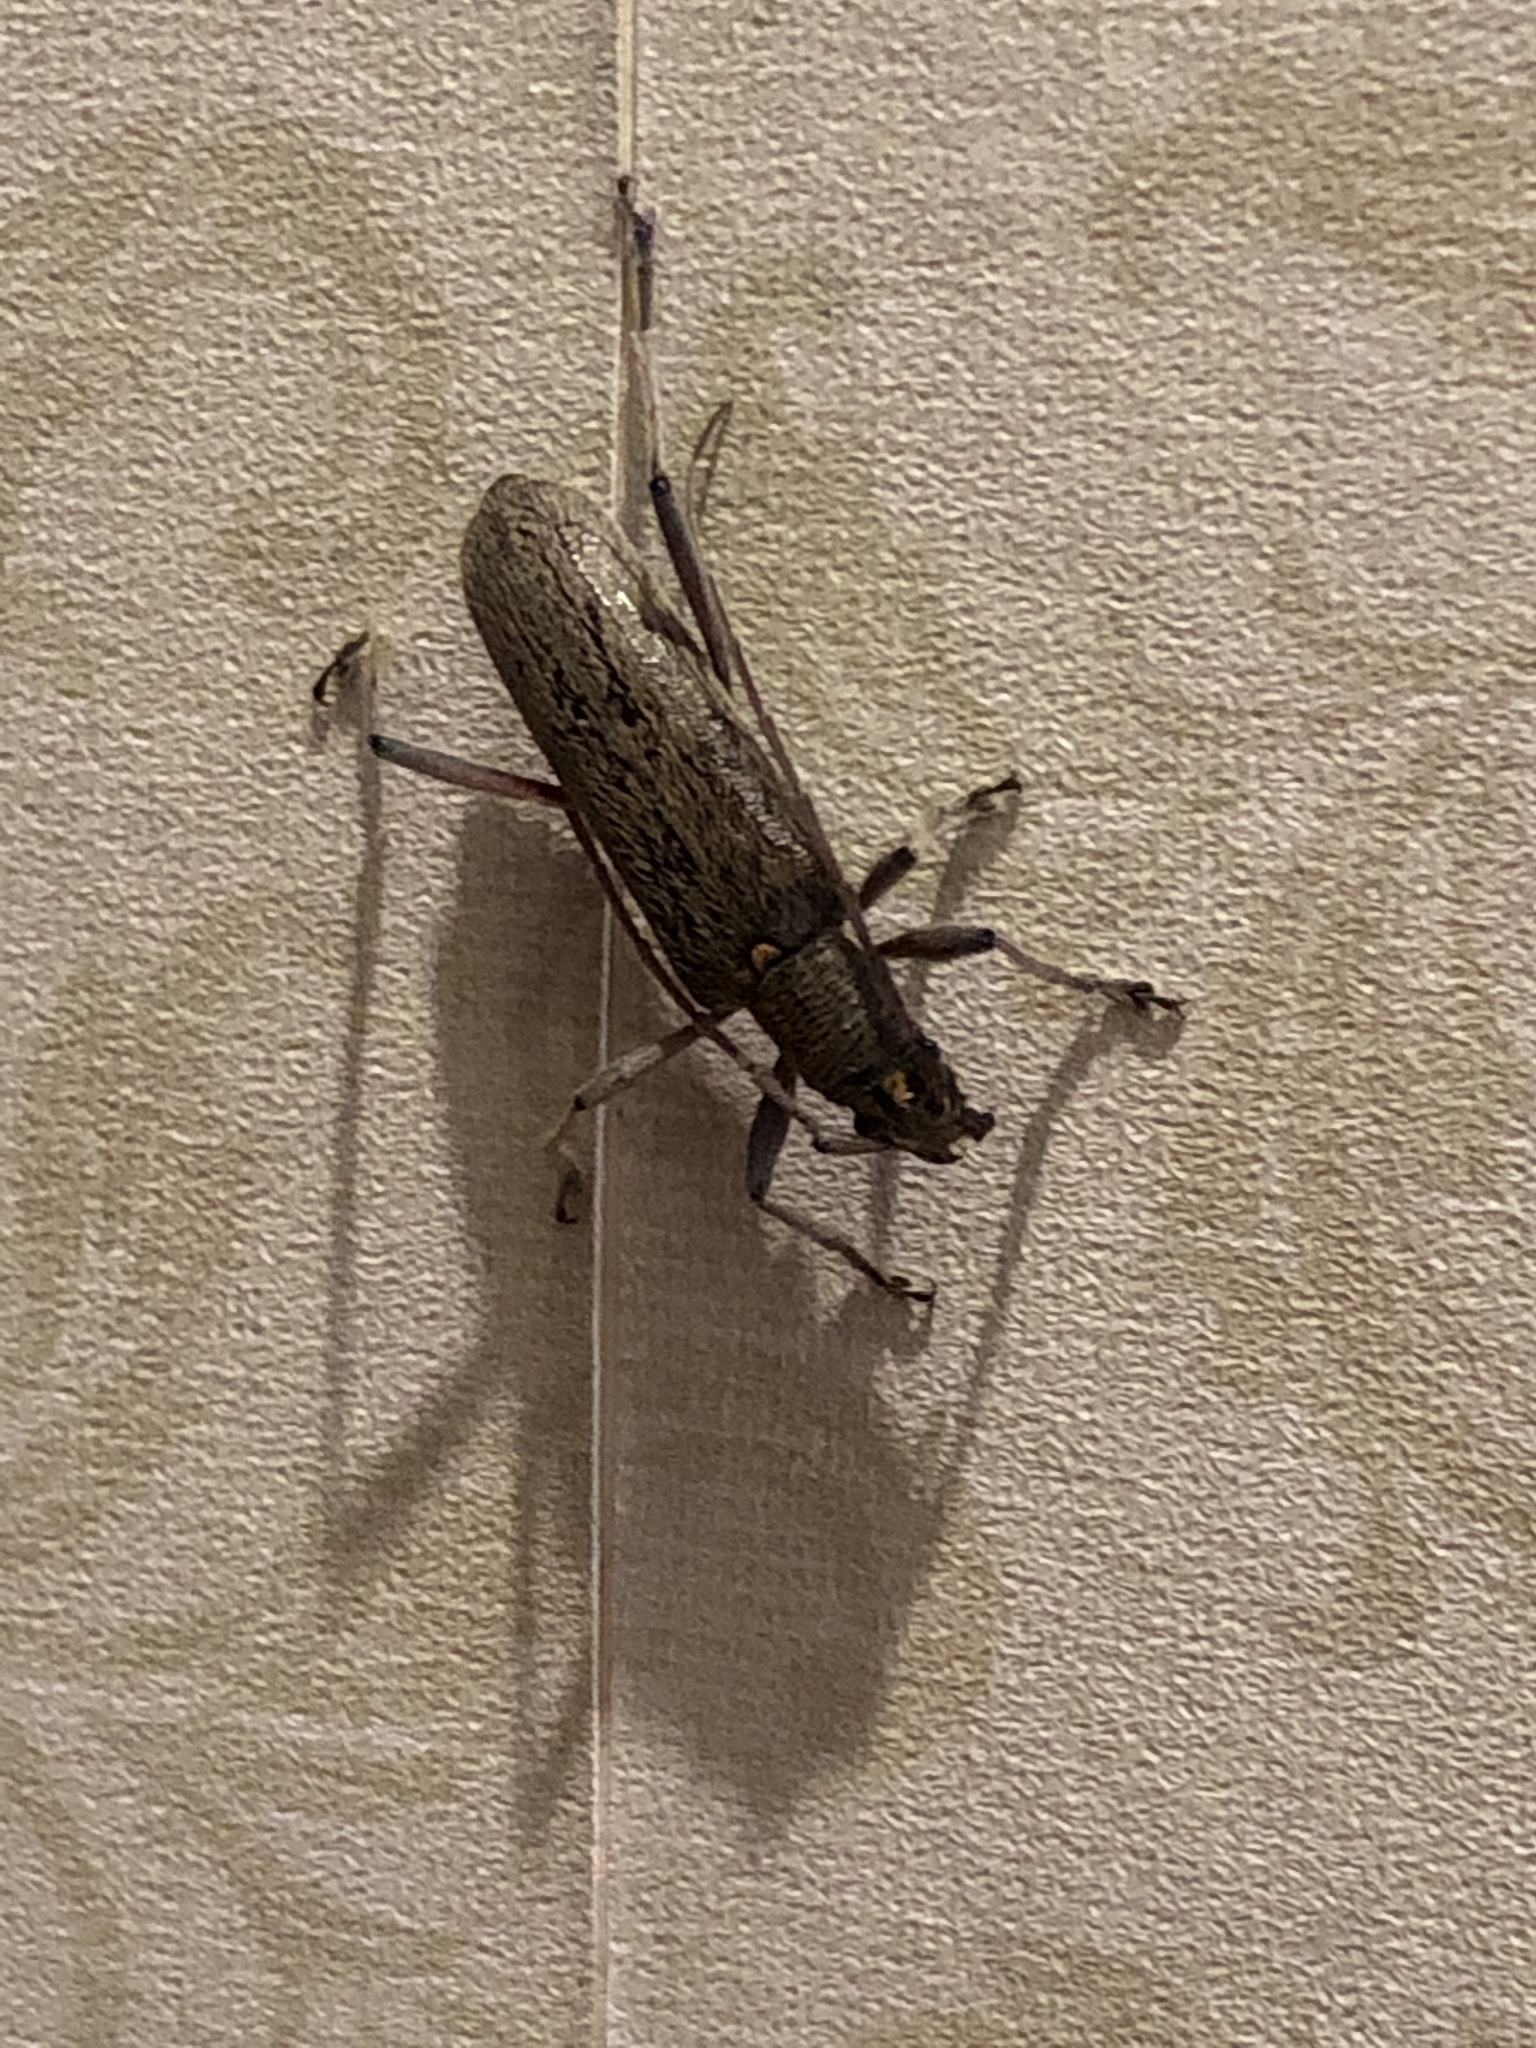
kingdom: Animalia
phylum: Arthropoda
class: Insecta
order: Coleoptera
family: Cerambycidae
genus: Oemona
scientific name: Oemona hirta
